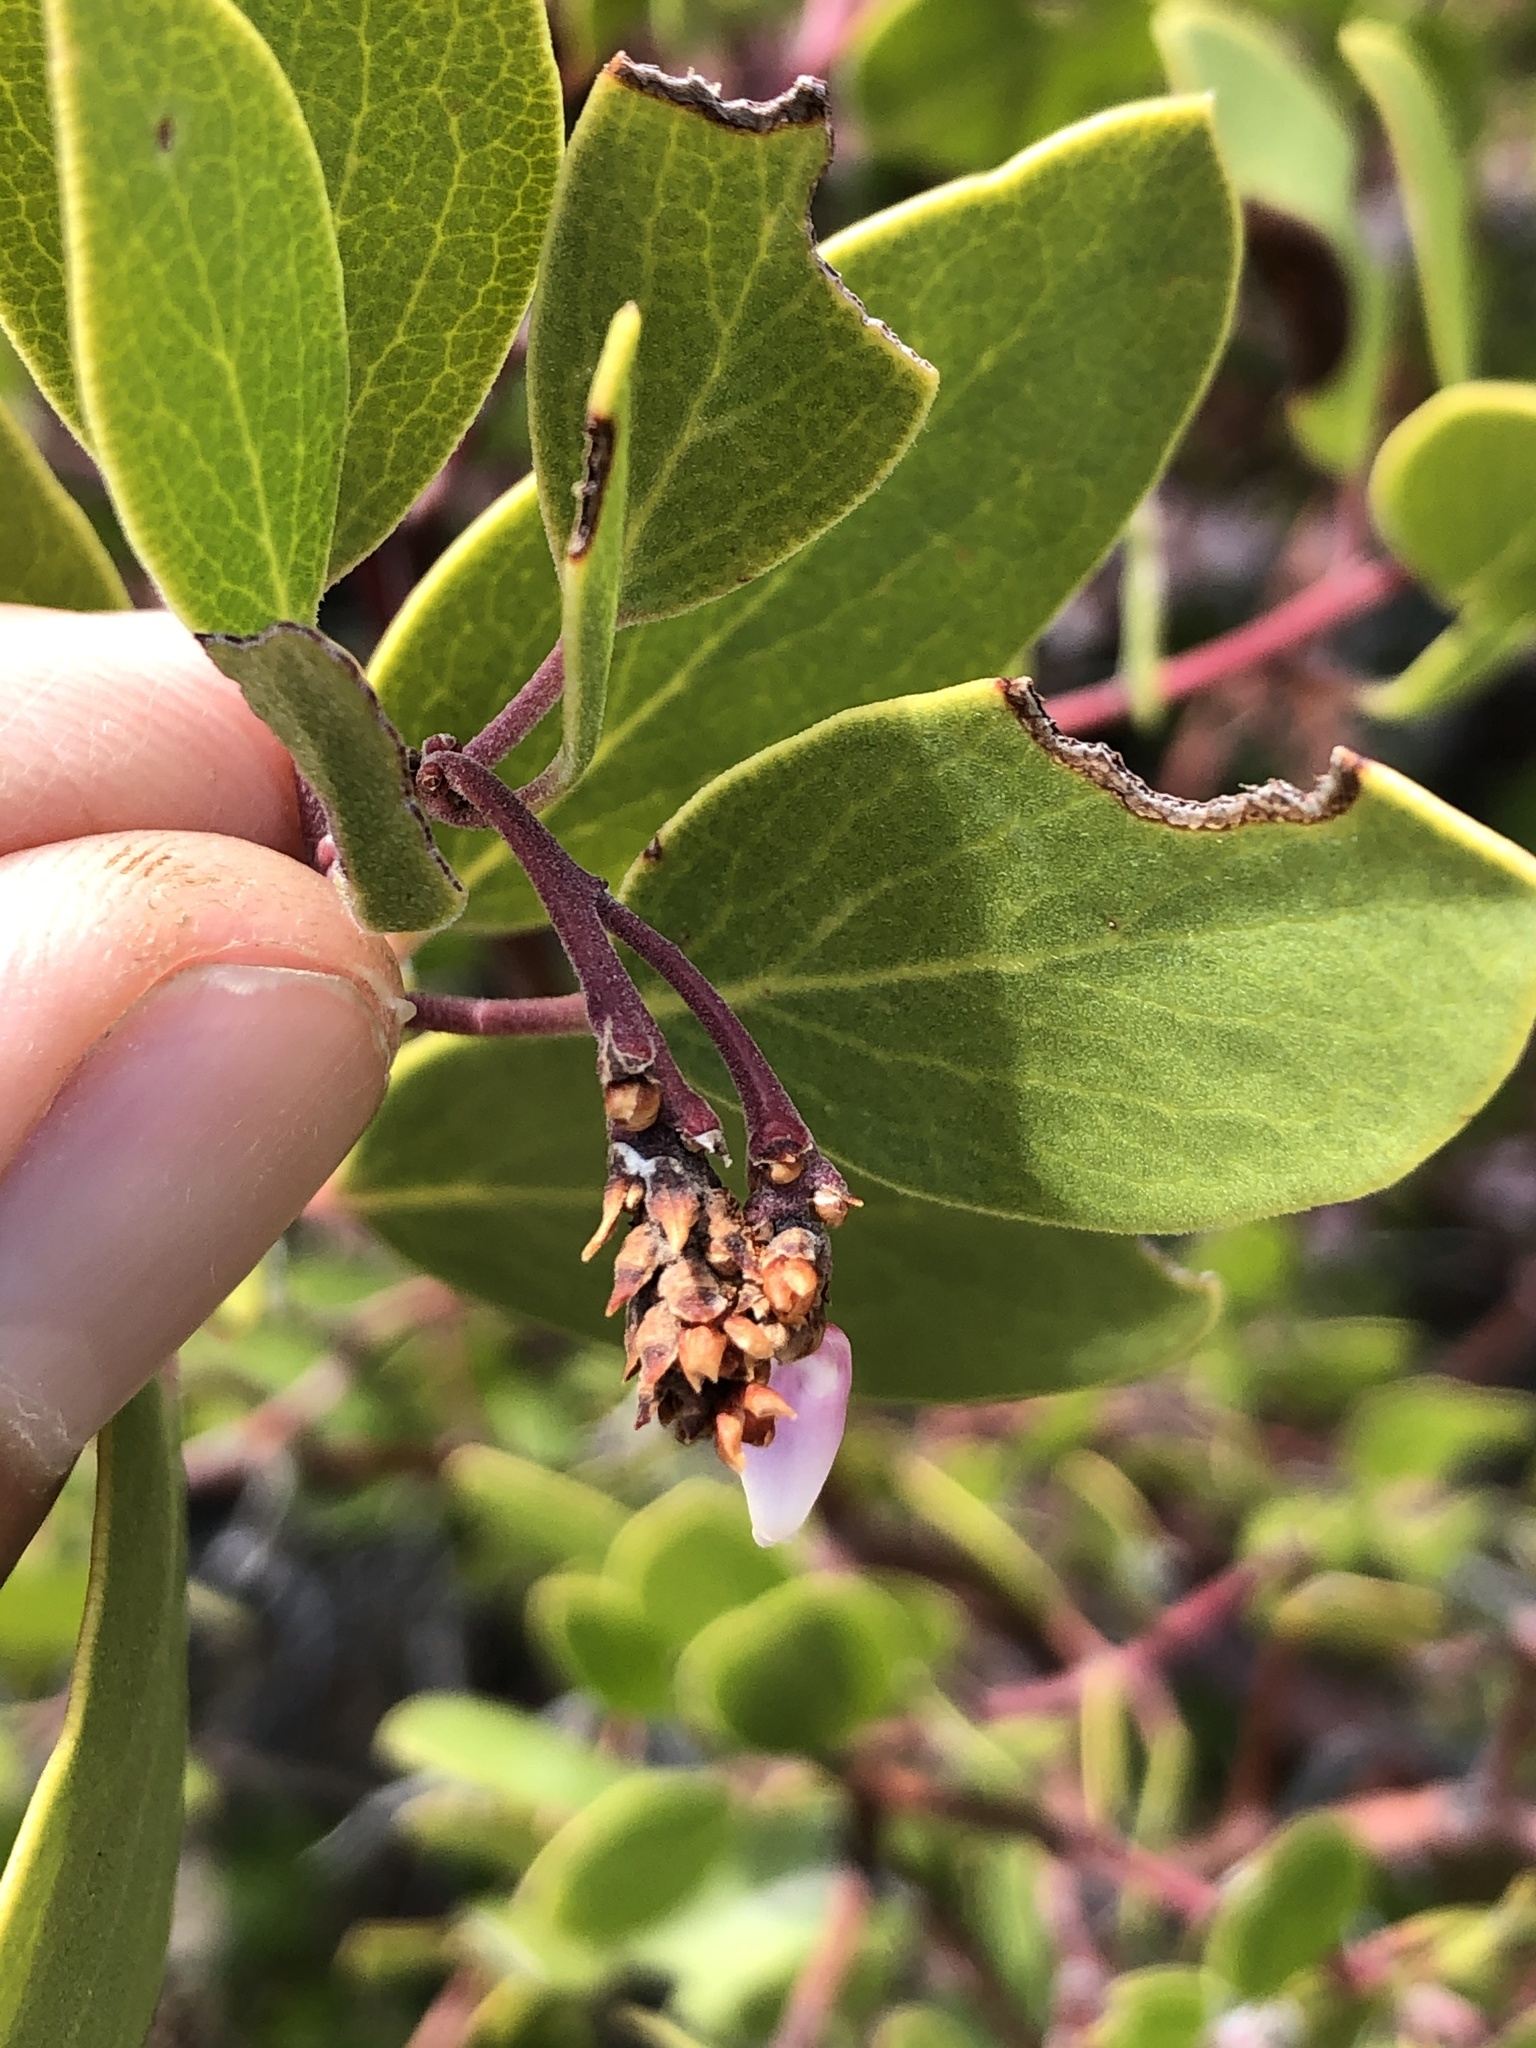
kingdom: Plantae
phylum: Tracheophyta
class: Magnoliopsida
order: Ericales
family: Ericaceae
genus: Arctostaphylos
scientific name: Arctostaphylos pungens
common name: Mexican manzanita
